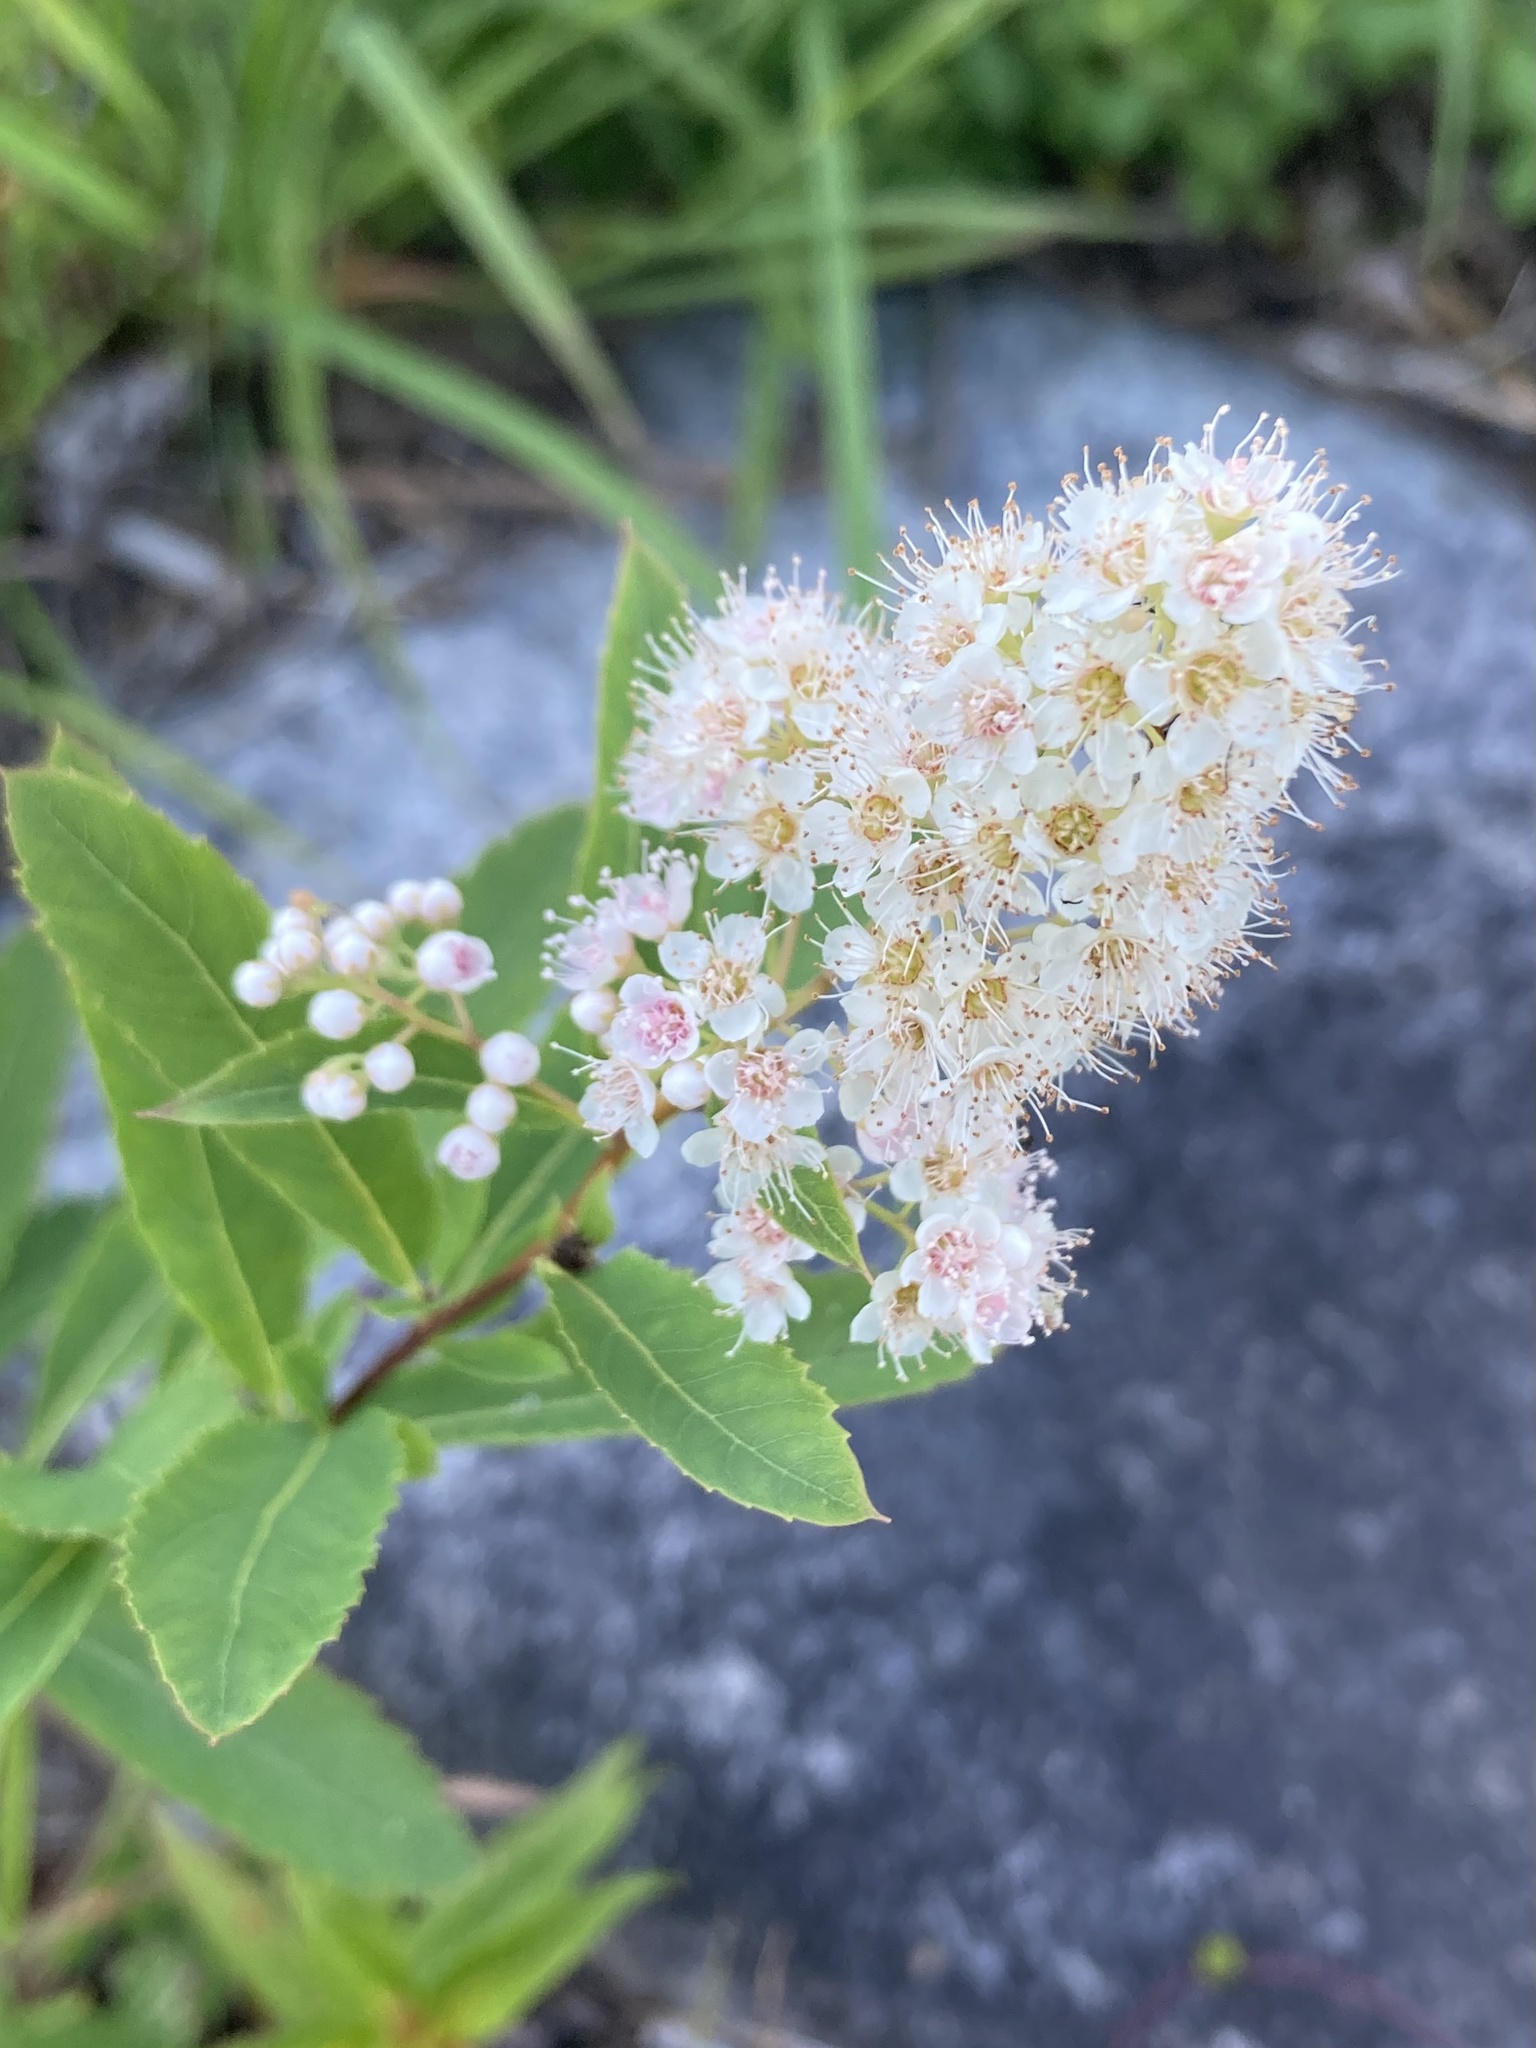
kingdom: Plantae
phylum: Tracheophyta
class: Magnoliopsida
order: Rosales
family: Rosaceae
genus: Spiraea
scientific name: Spiraea alba
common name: Pale bridewort
